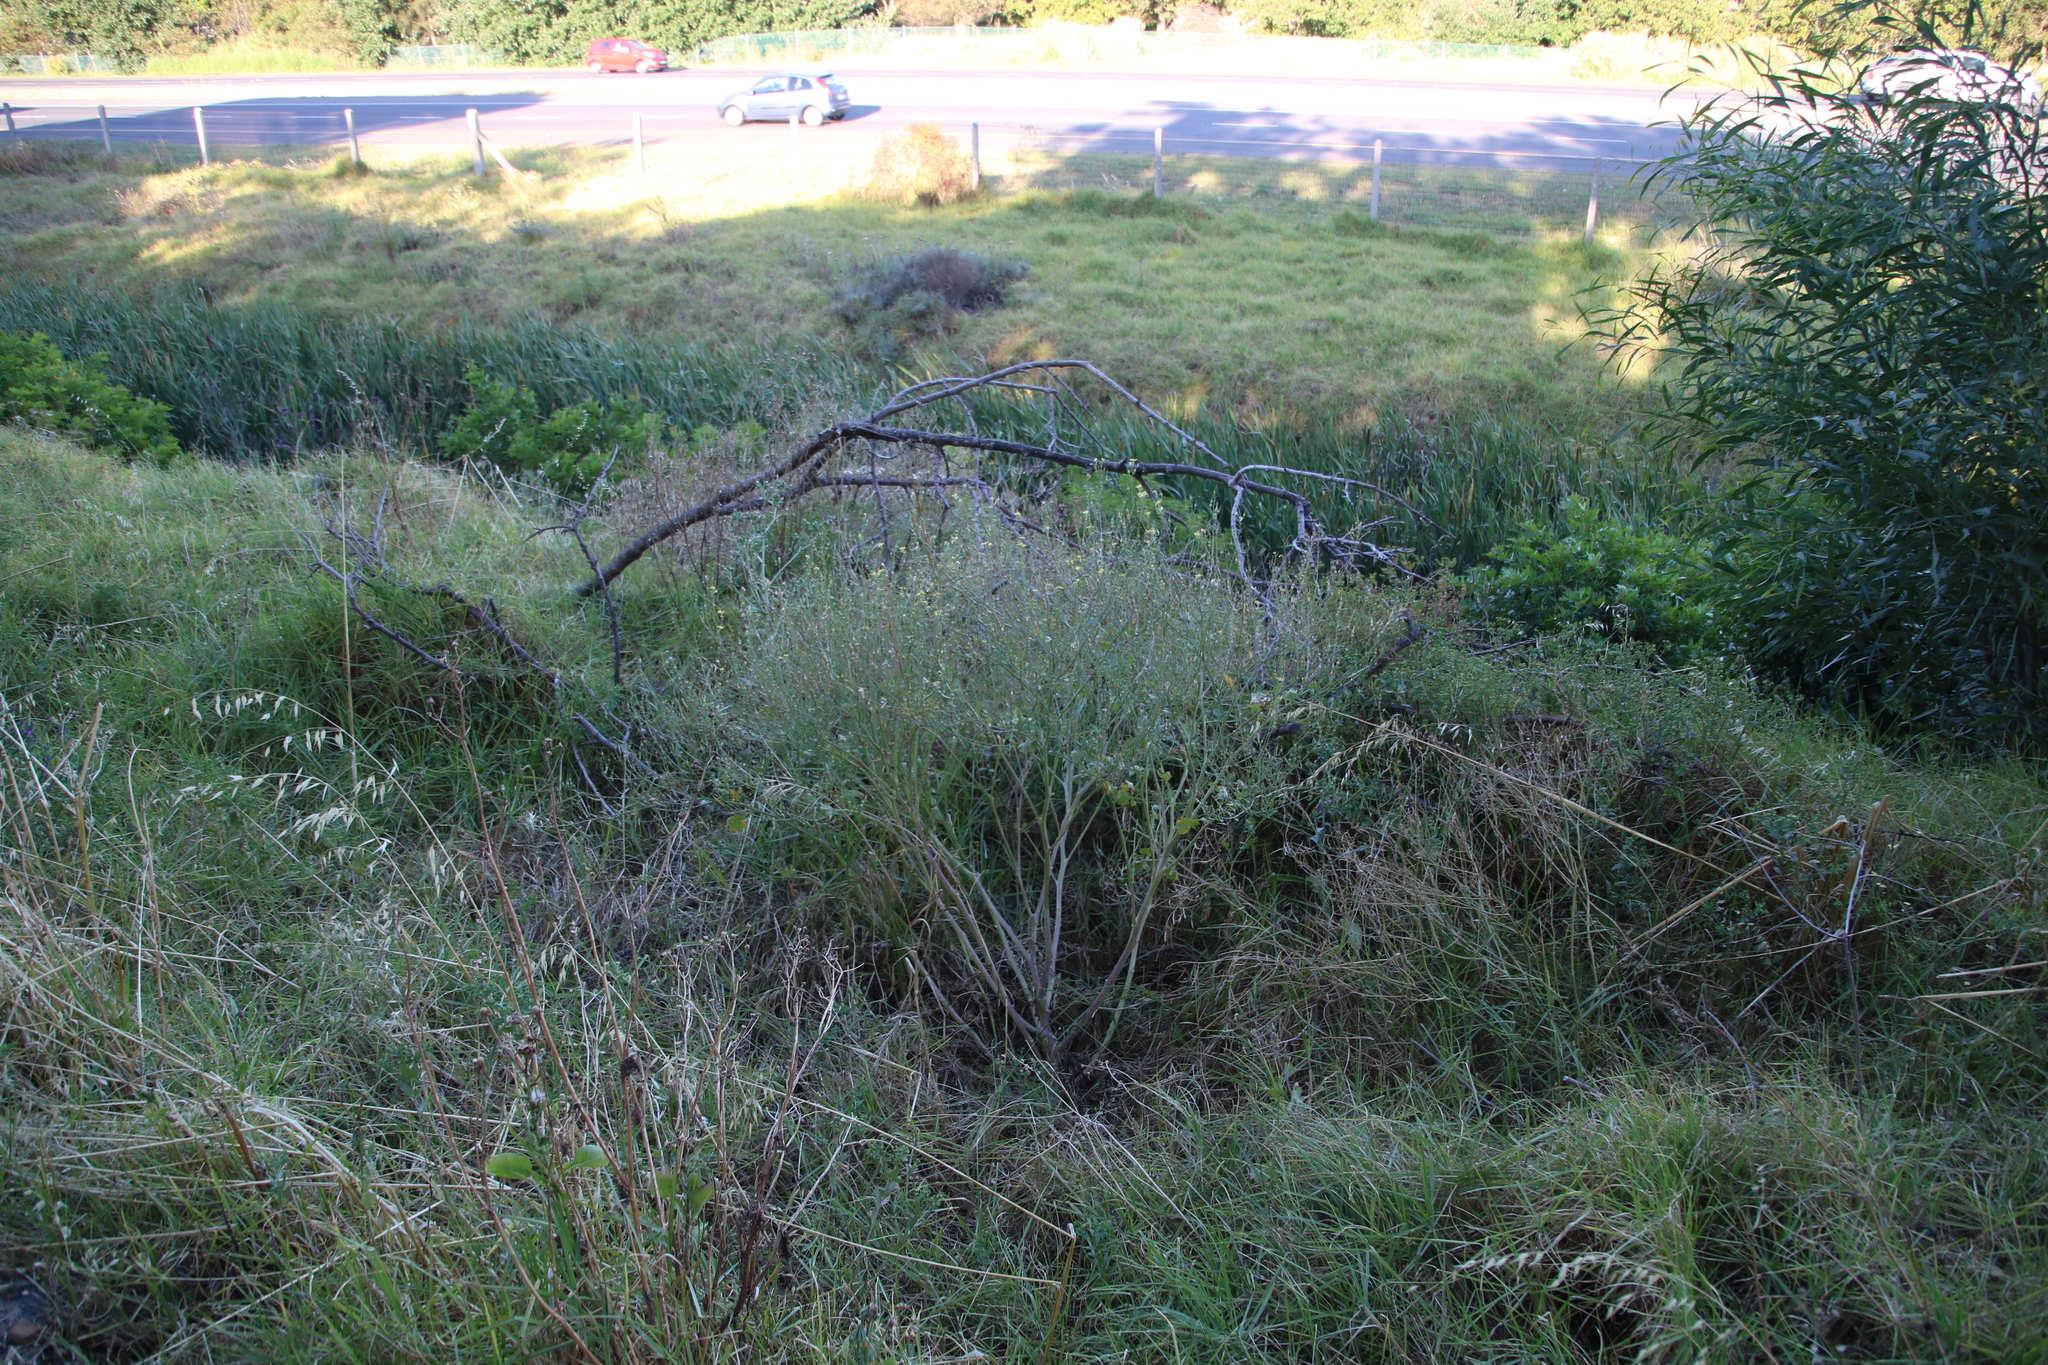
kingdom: Plantae
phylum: Tracheophyta
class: Magnoliopsida
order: Brassicales
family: Brassicaceae
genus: Raphanus
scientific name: Raphanus raphanistrum
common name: Wild radish
